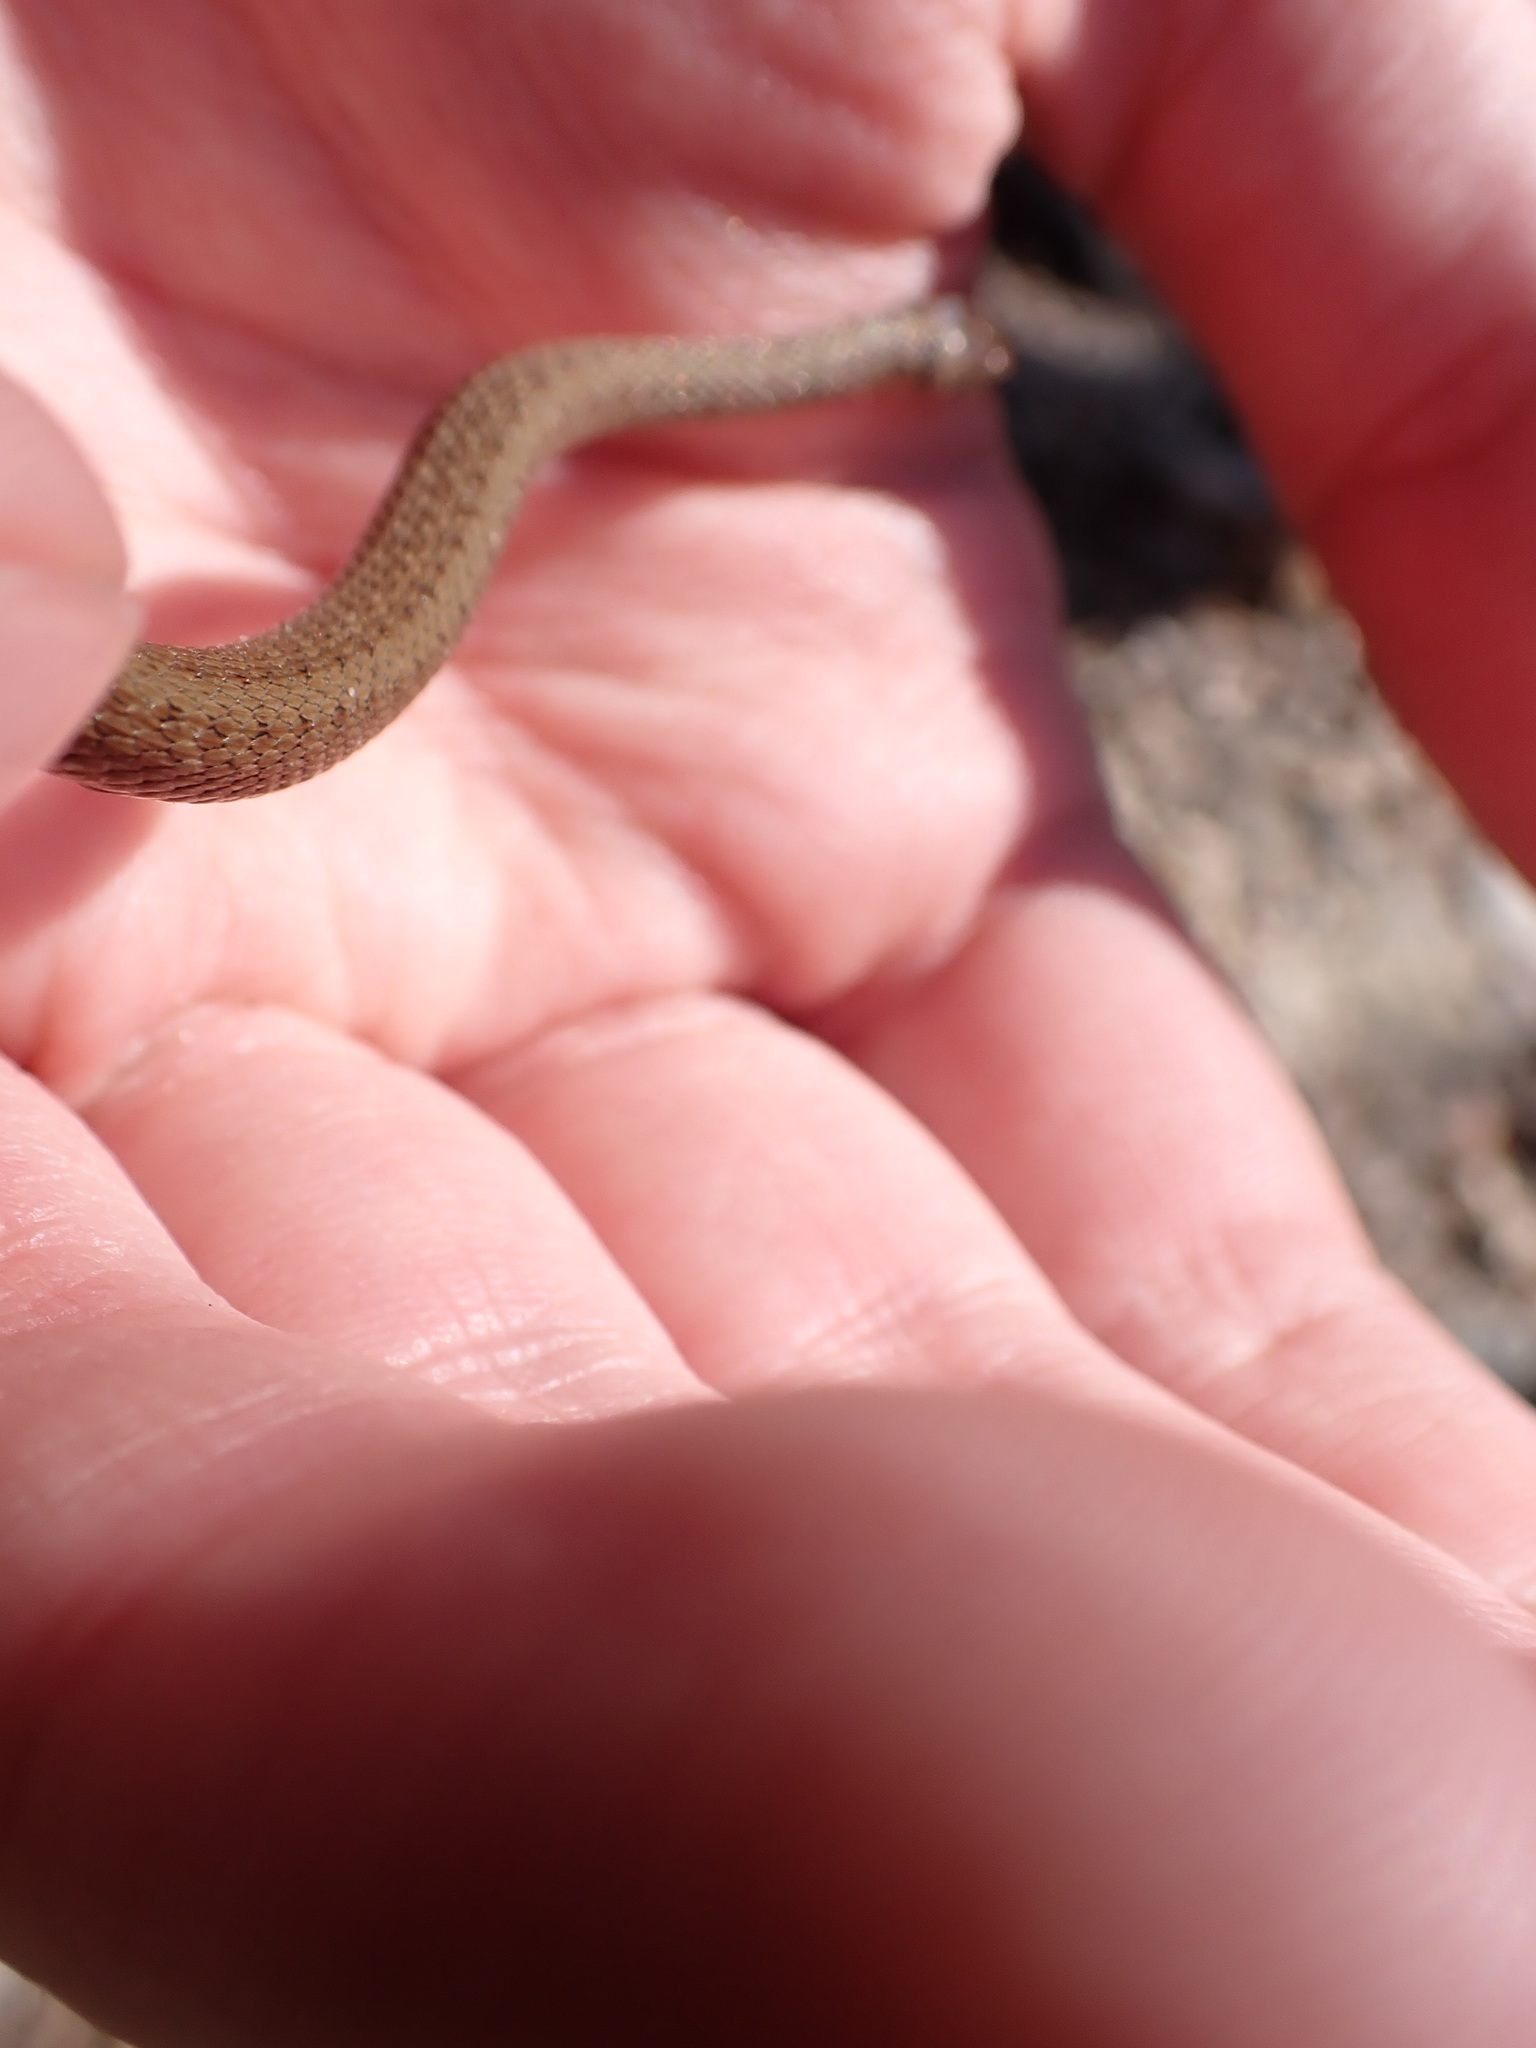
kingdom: Animalia
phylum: Chordata
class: Squamata
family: Colubridae
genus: Storeria
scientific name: Storeria dekayi
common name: (dekay’s) brown snake
